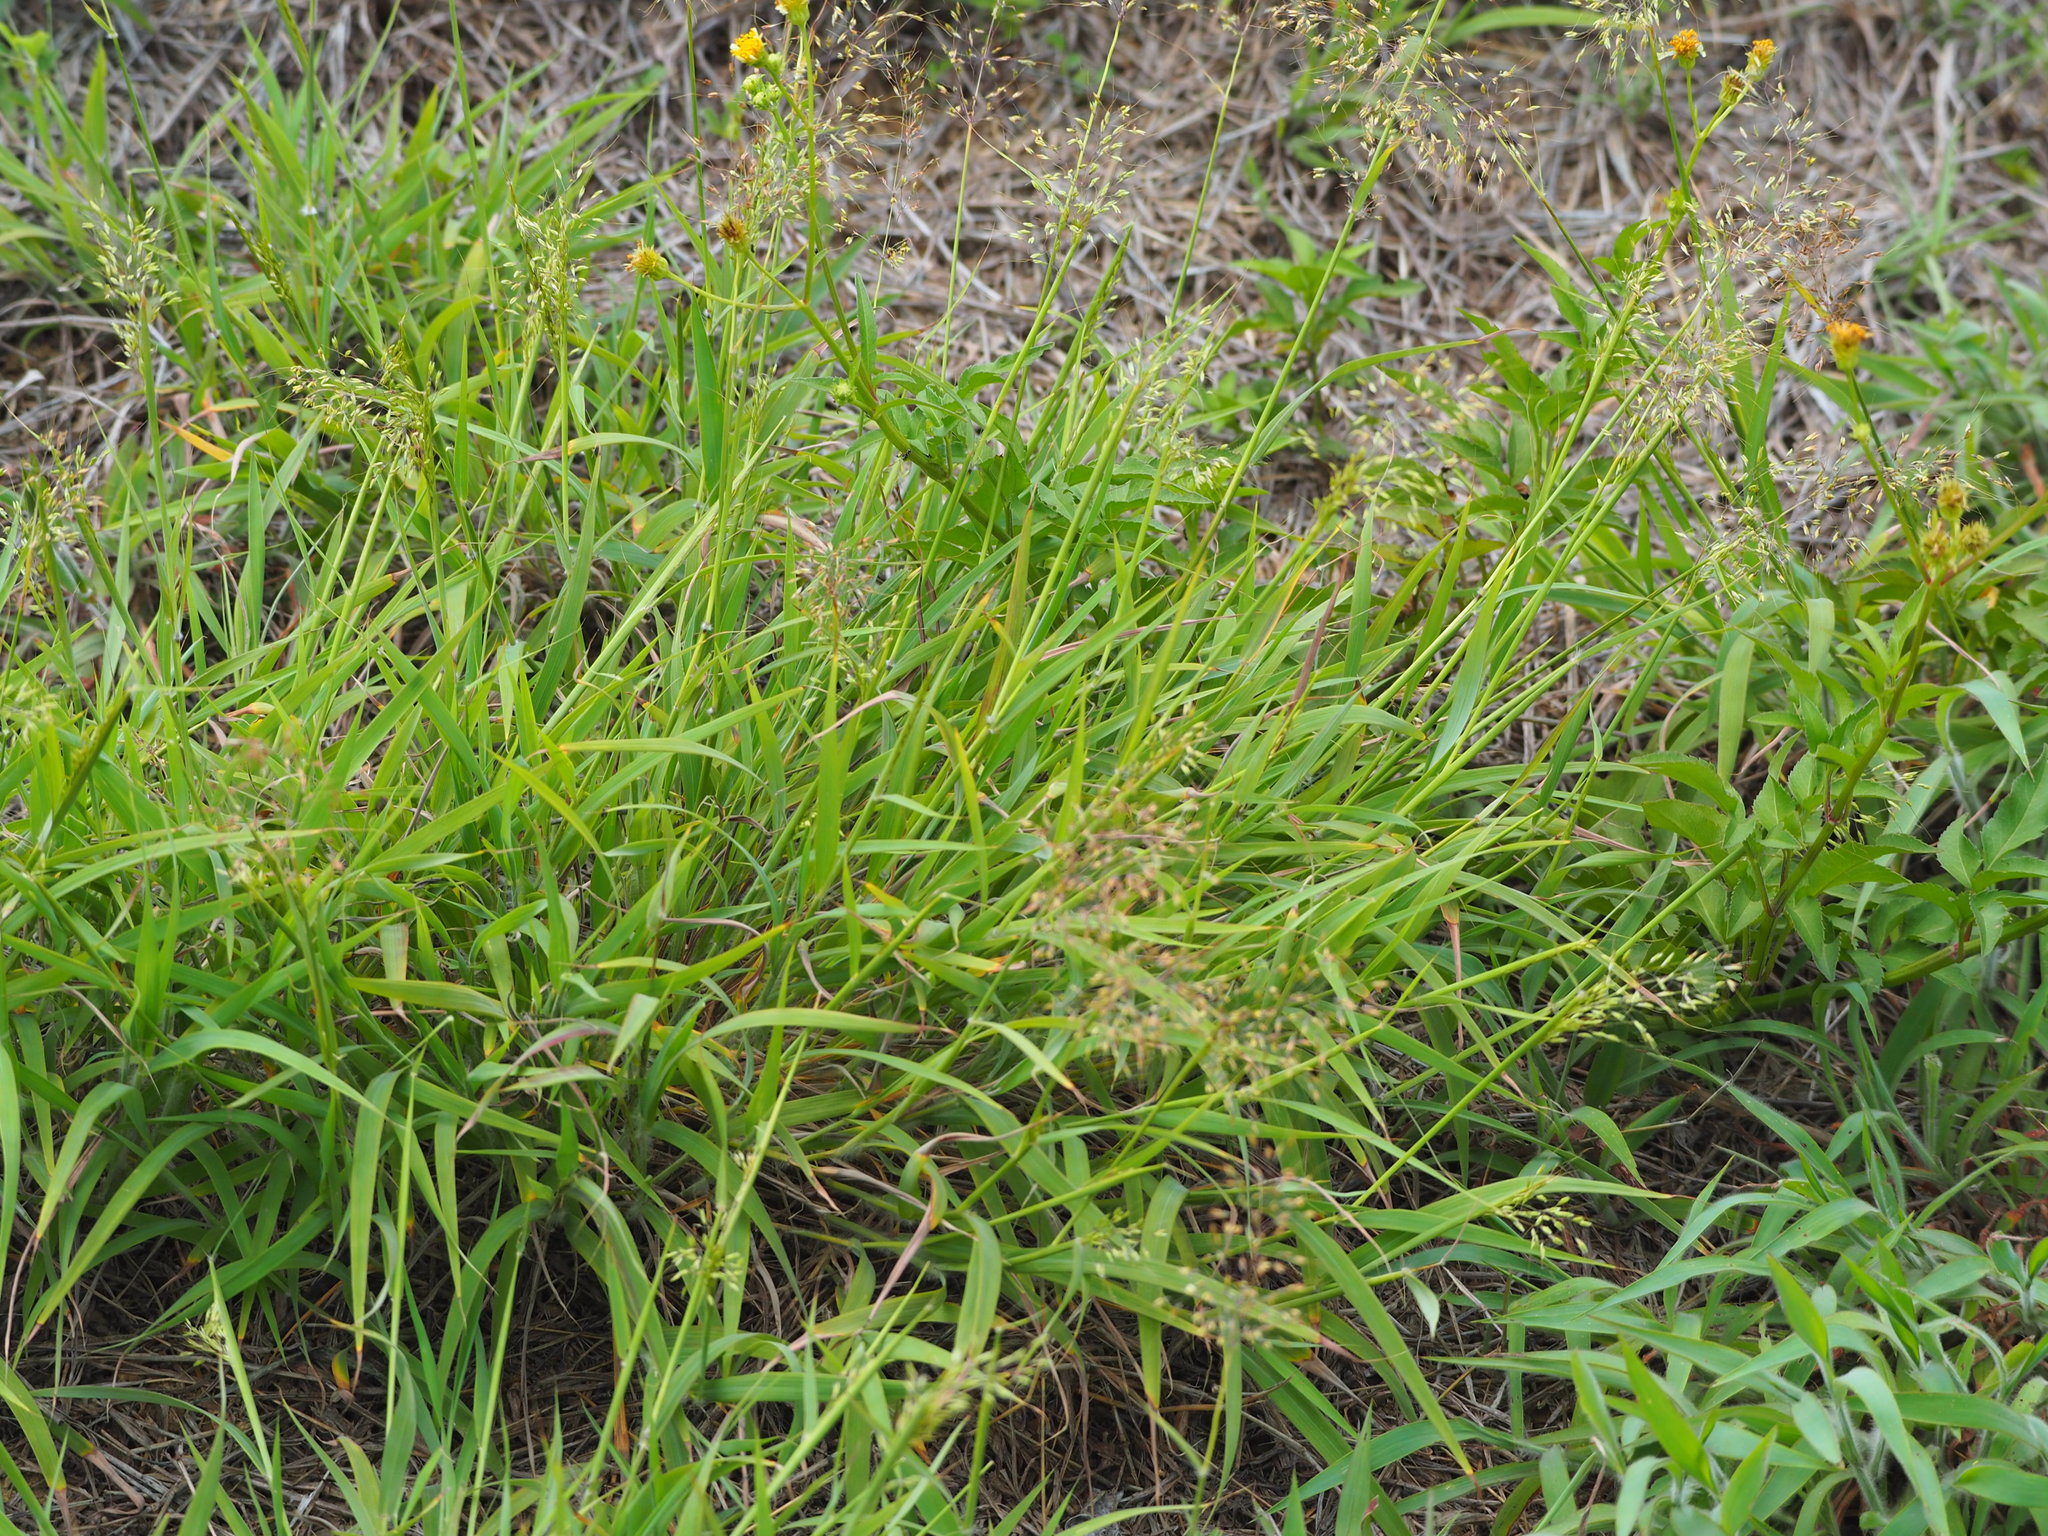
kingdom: Plantae
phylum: Tracheophyta
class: Liliopsida
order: Poales
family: Poaceae
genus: Capillipedium
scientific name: Capillipedium parviflorum
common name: Golden-beard
